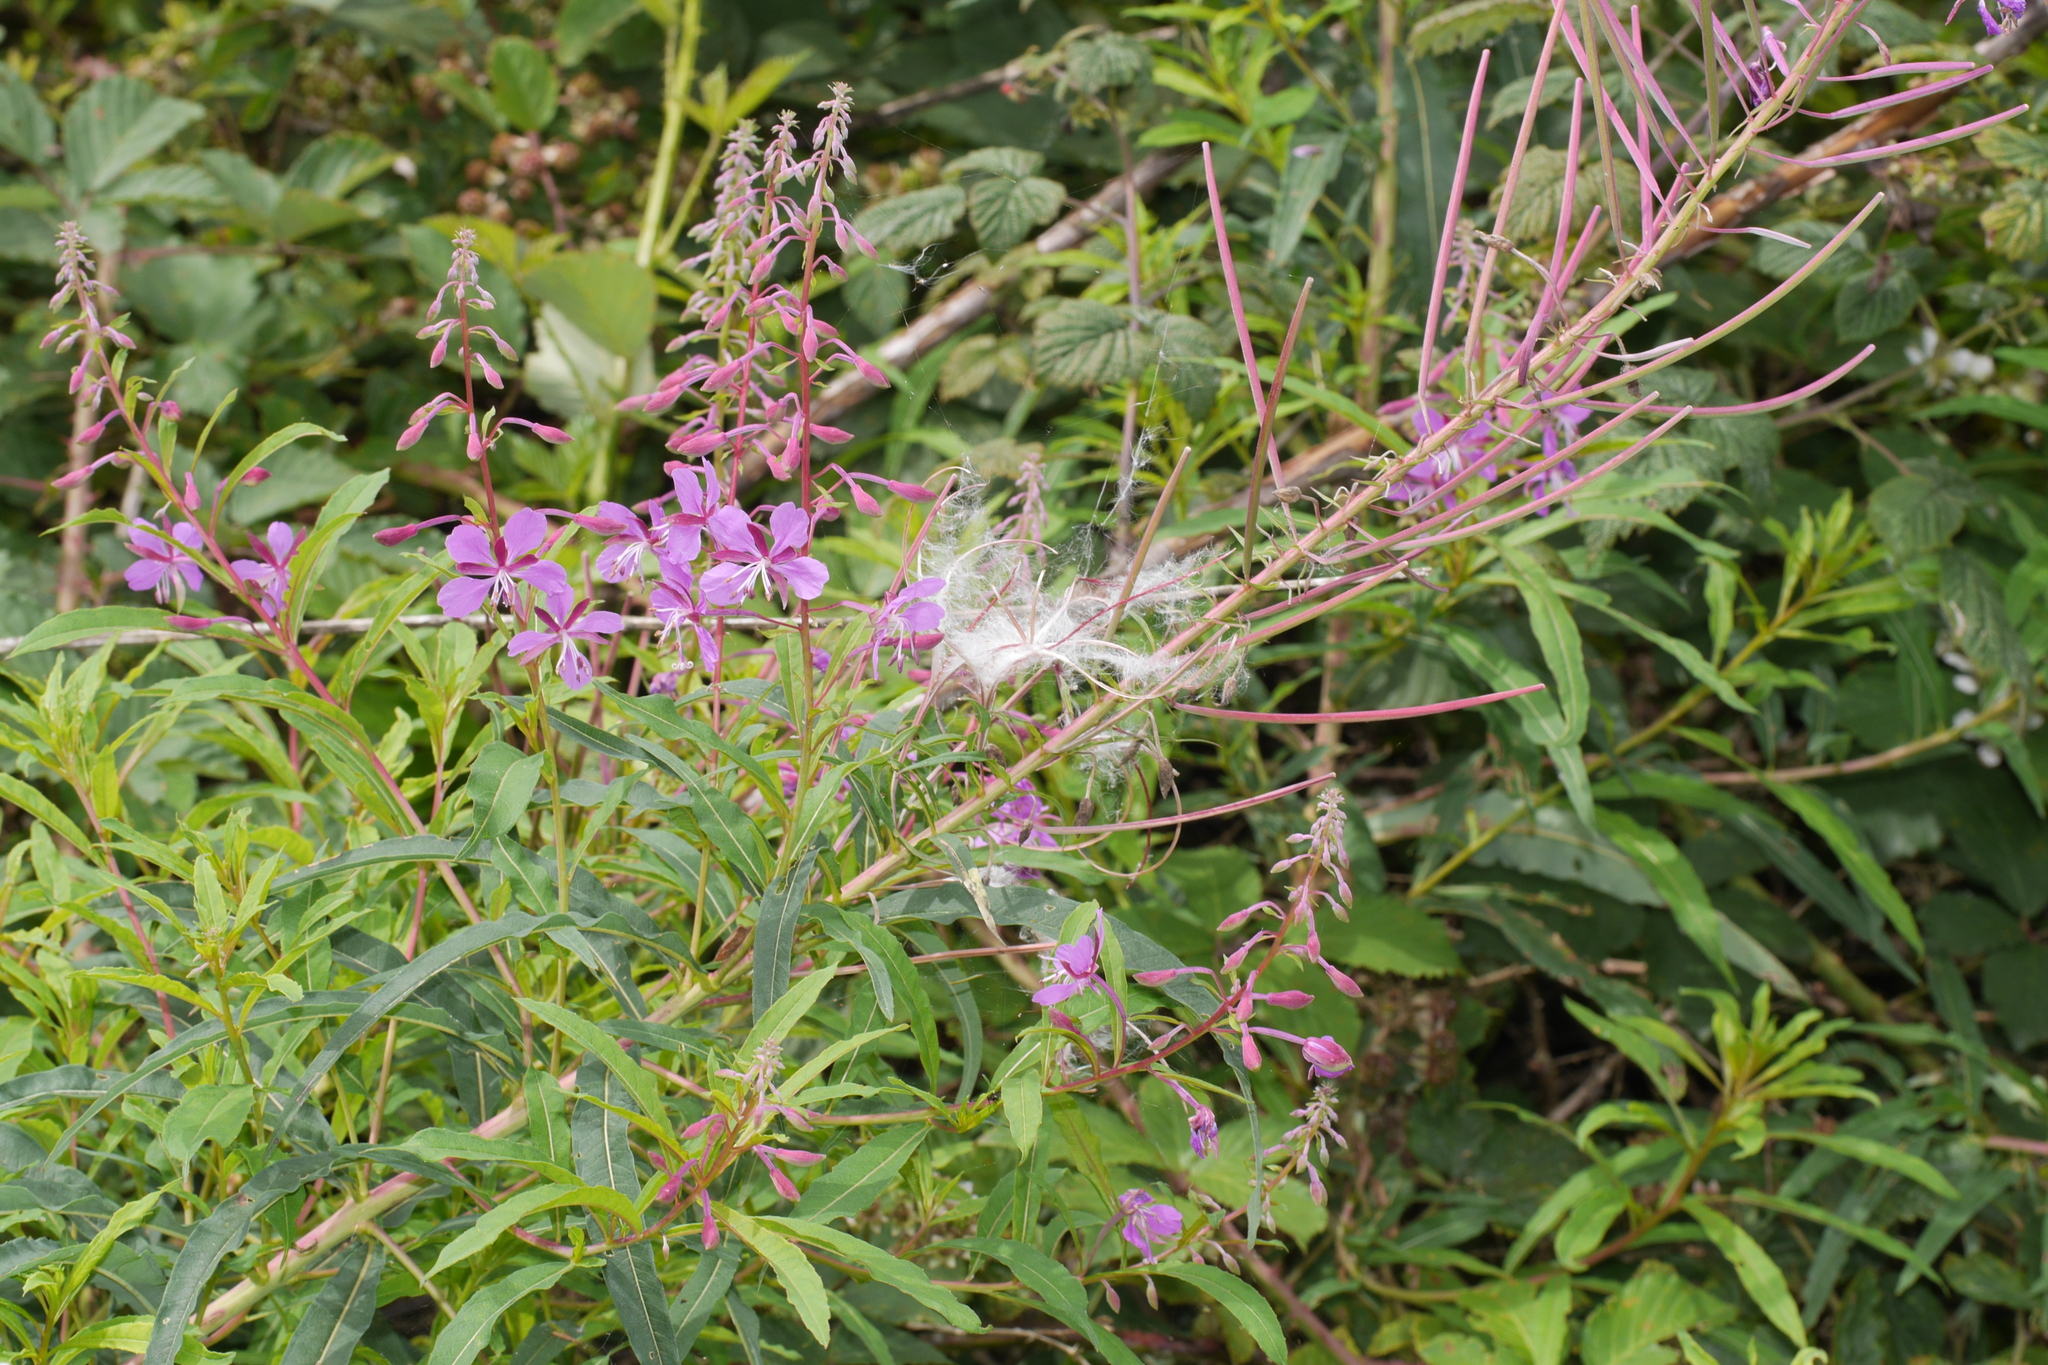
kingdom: Plantae
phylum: Tracheophyta
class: Magnoliopsida
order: Myrtales
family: Onagraceae
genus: Chamaenerion
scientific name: Chamaenerion angustifolium
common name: Fireweed
